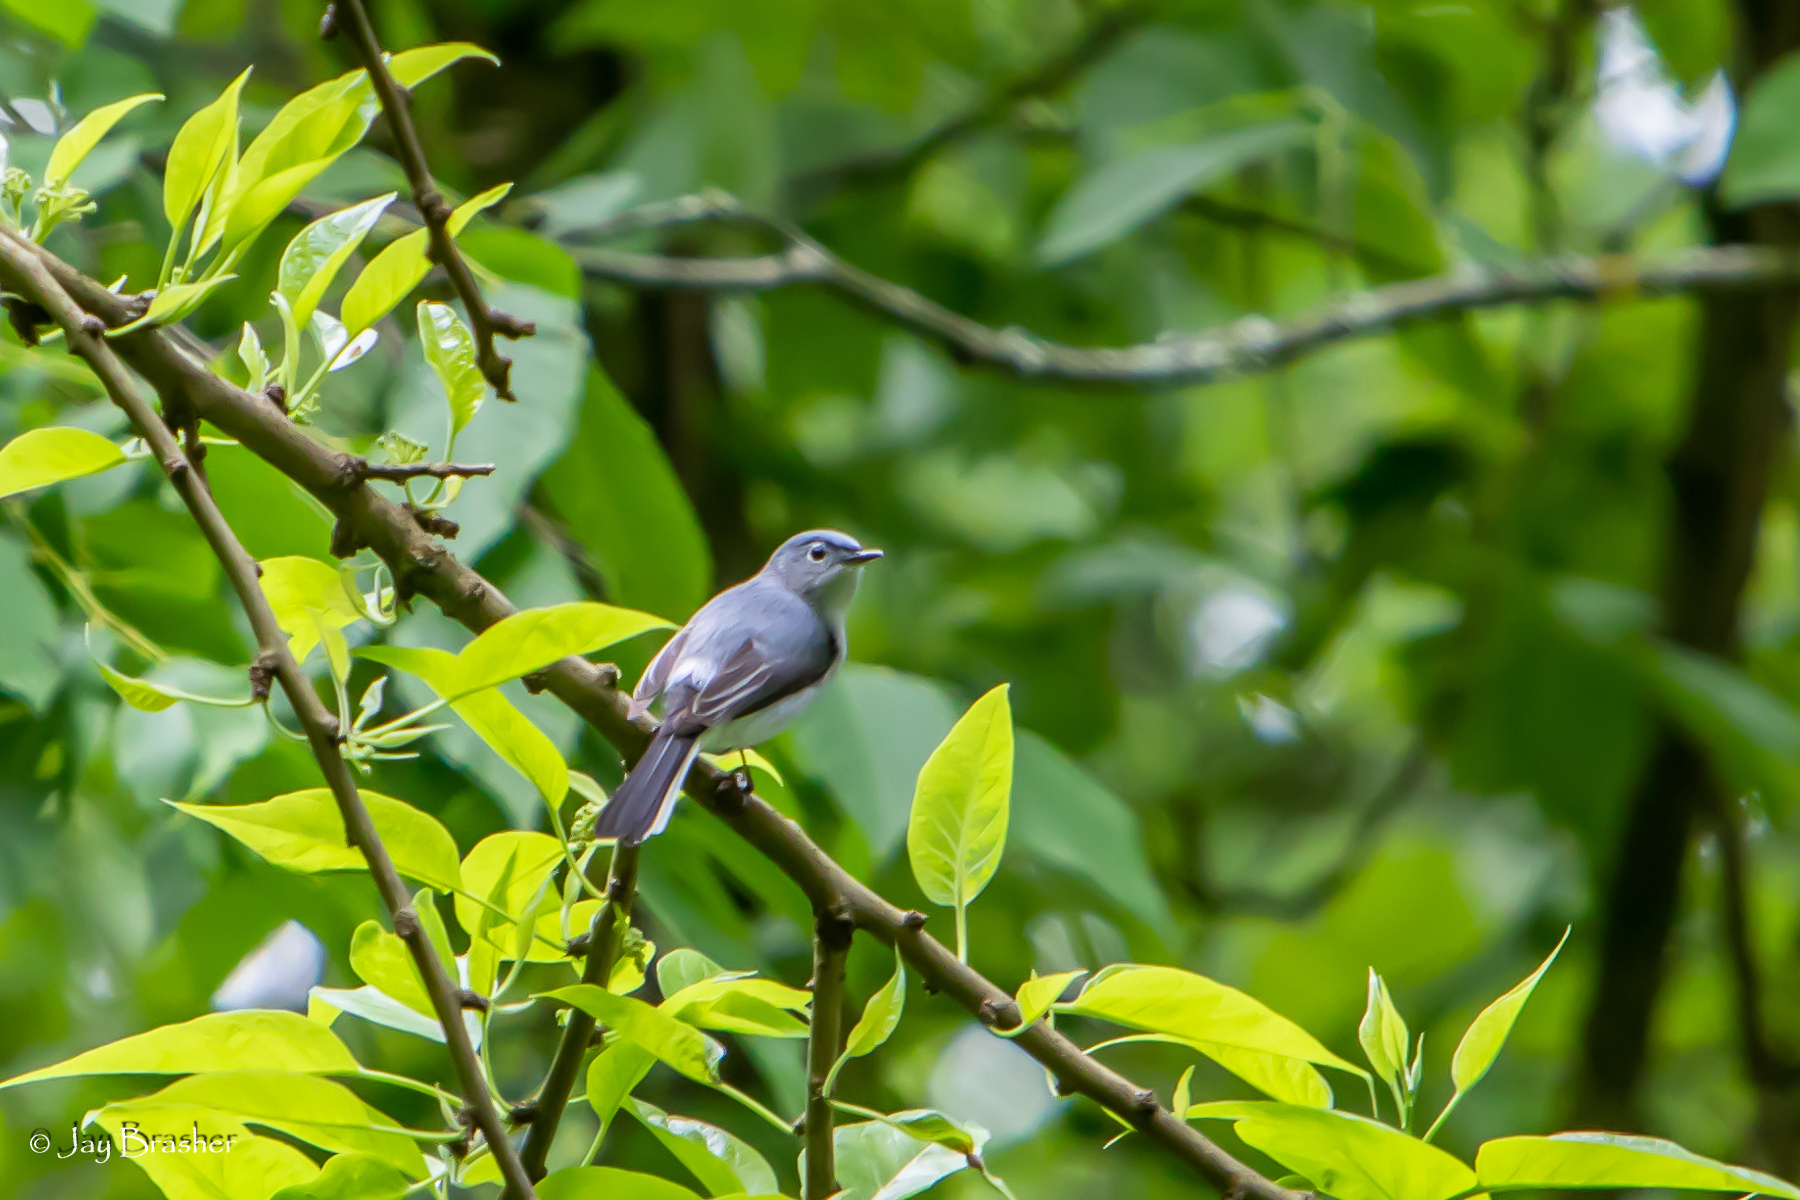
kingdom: Animalia
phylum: Chordata
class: Aves
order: Passeriformes
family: Polioptilidae
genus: Polioptila
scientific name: Polioptila caerulea
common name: Blue-gray gnatcatcher
